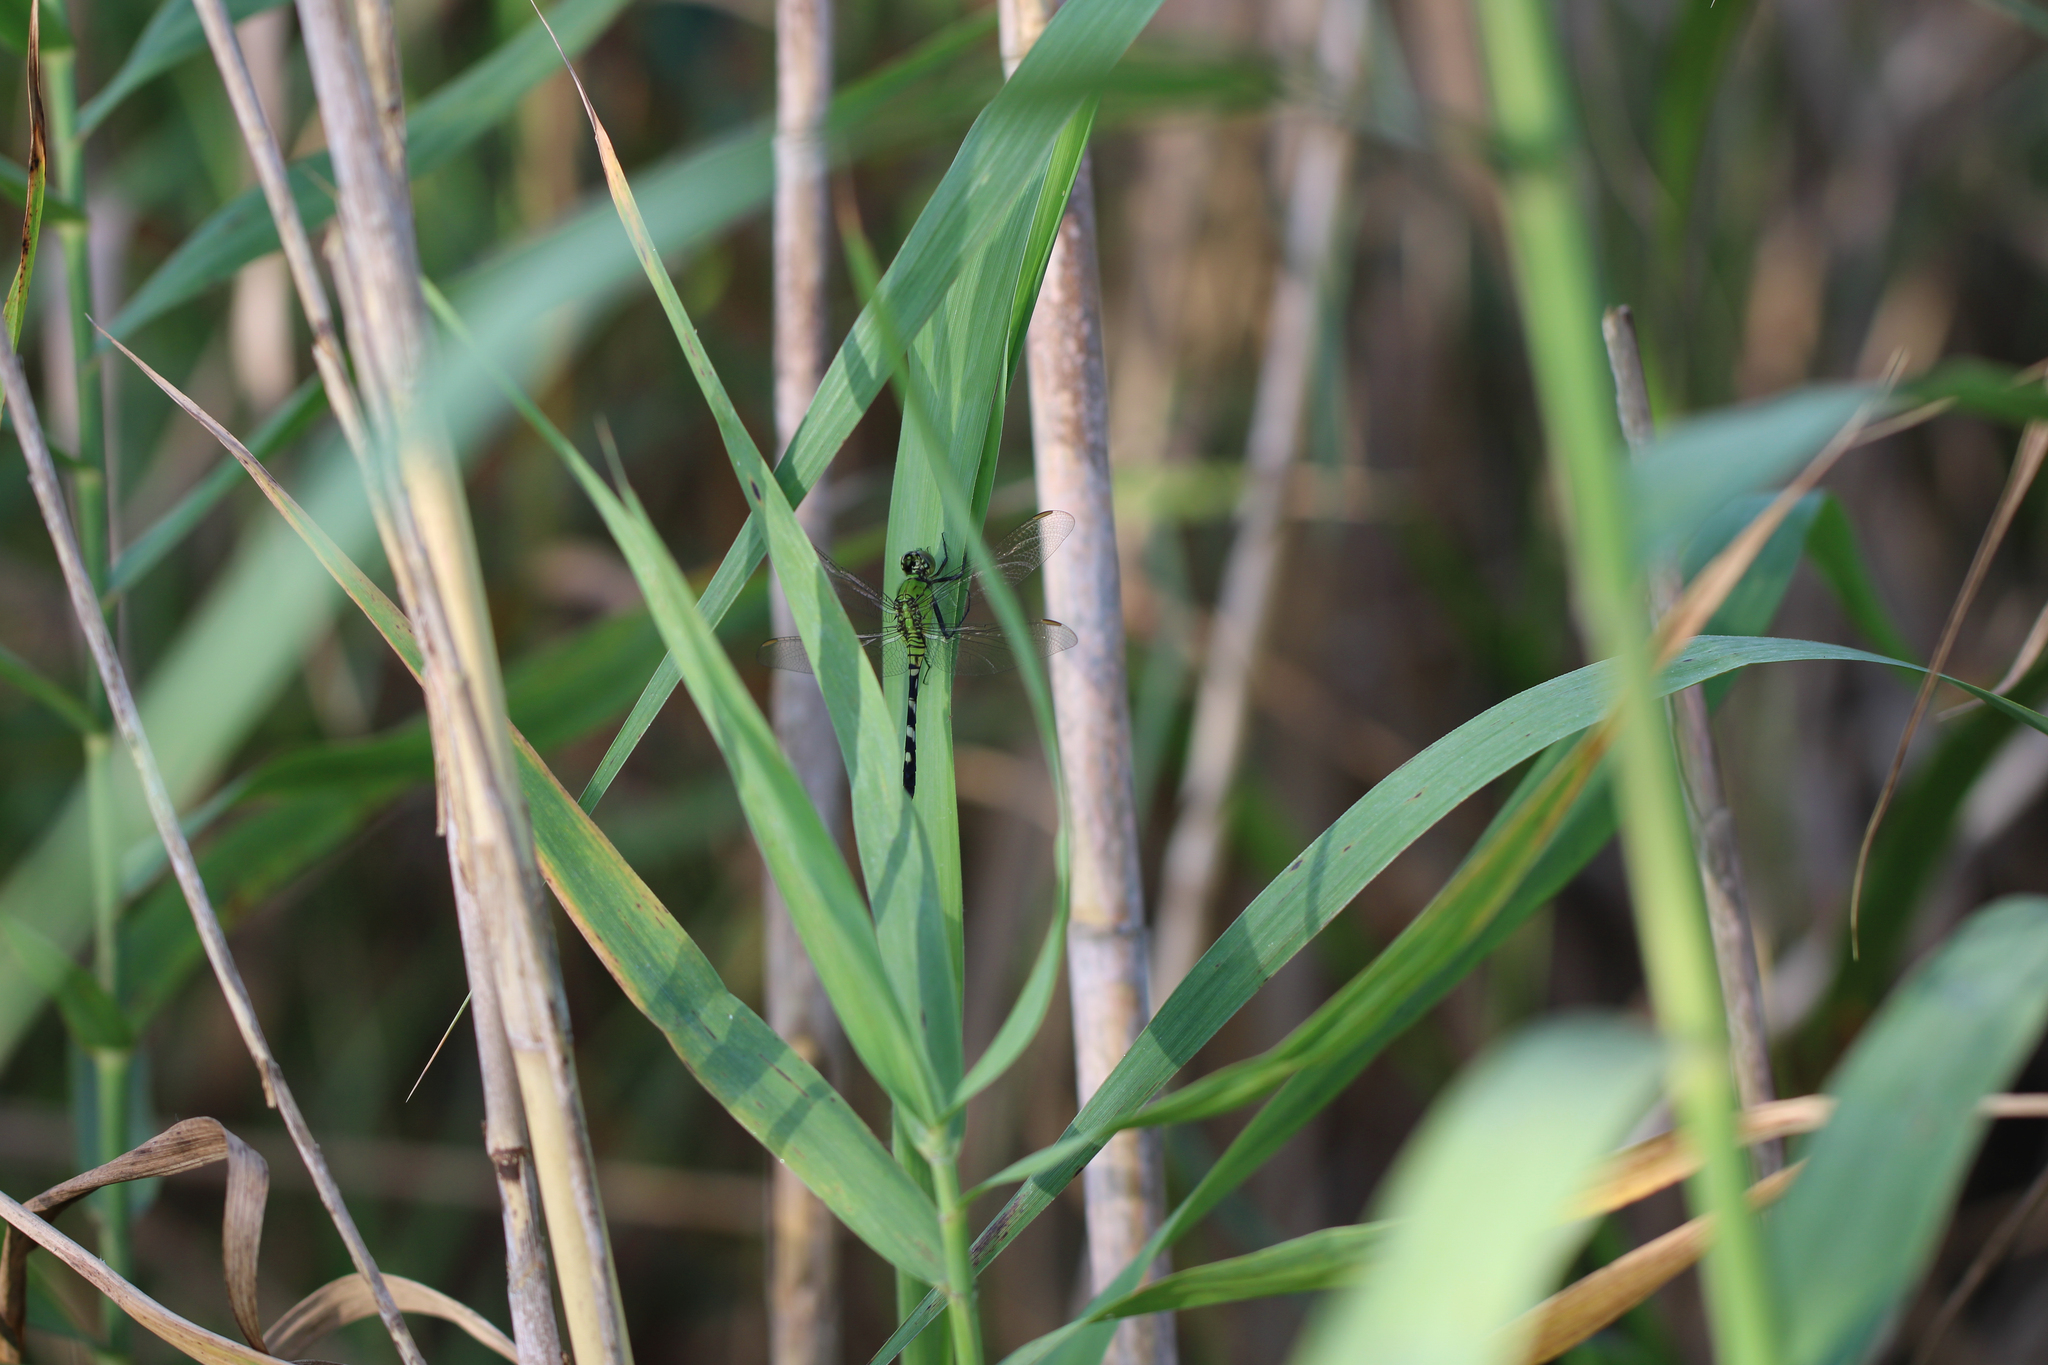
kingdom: Animalia
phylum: Arthropoda
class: Insecta
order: Odonata
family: Libellulidae
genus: Erythemis
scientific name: Erythemis simplicicollis
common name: Eastern pondhawk
